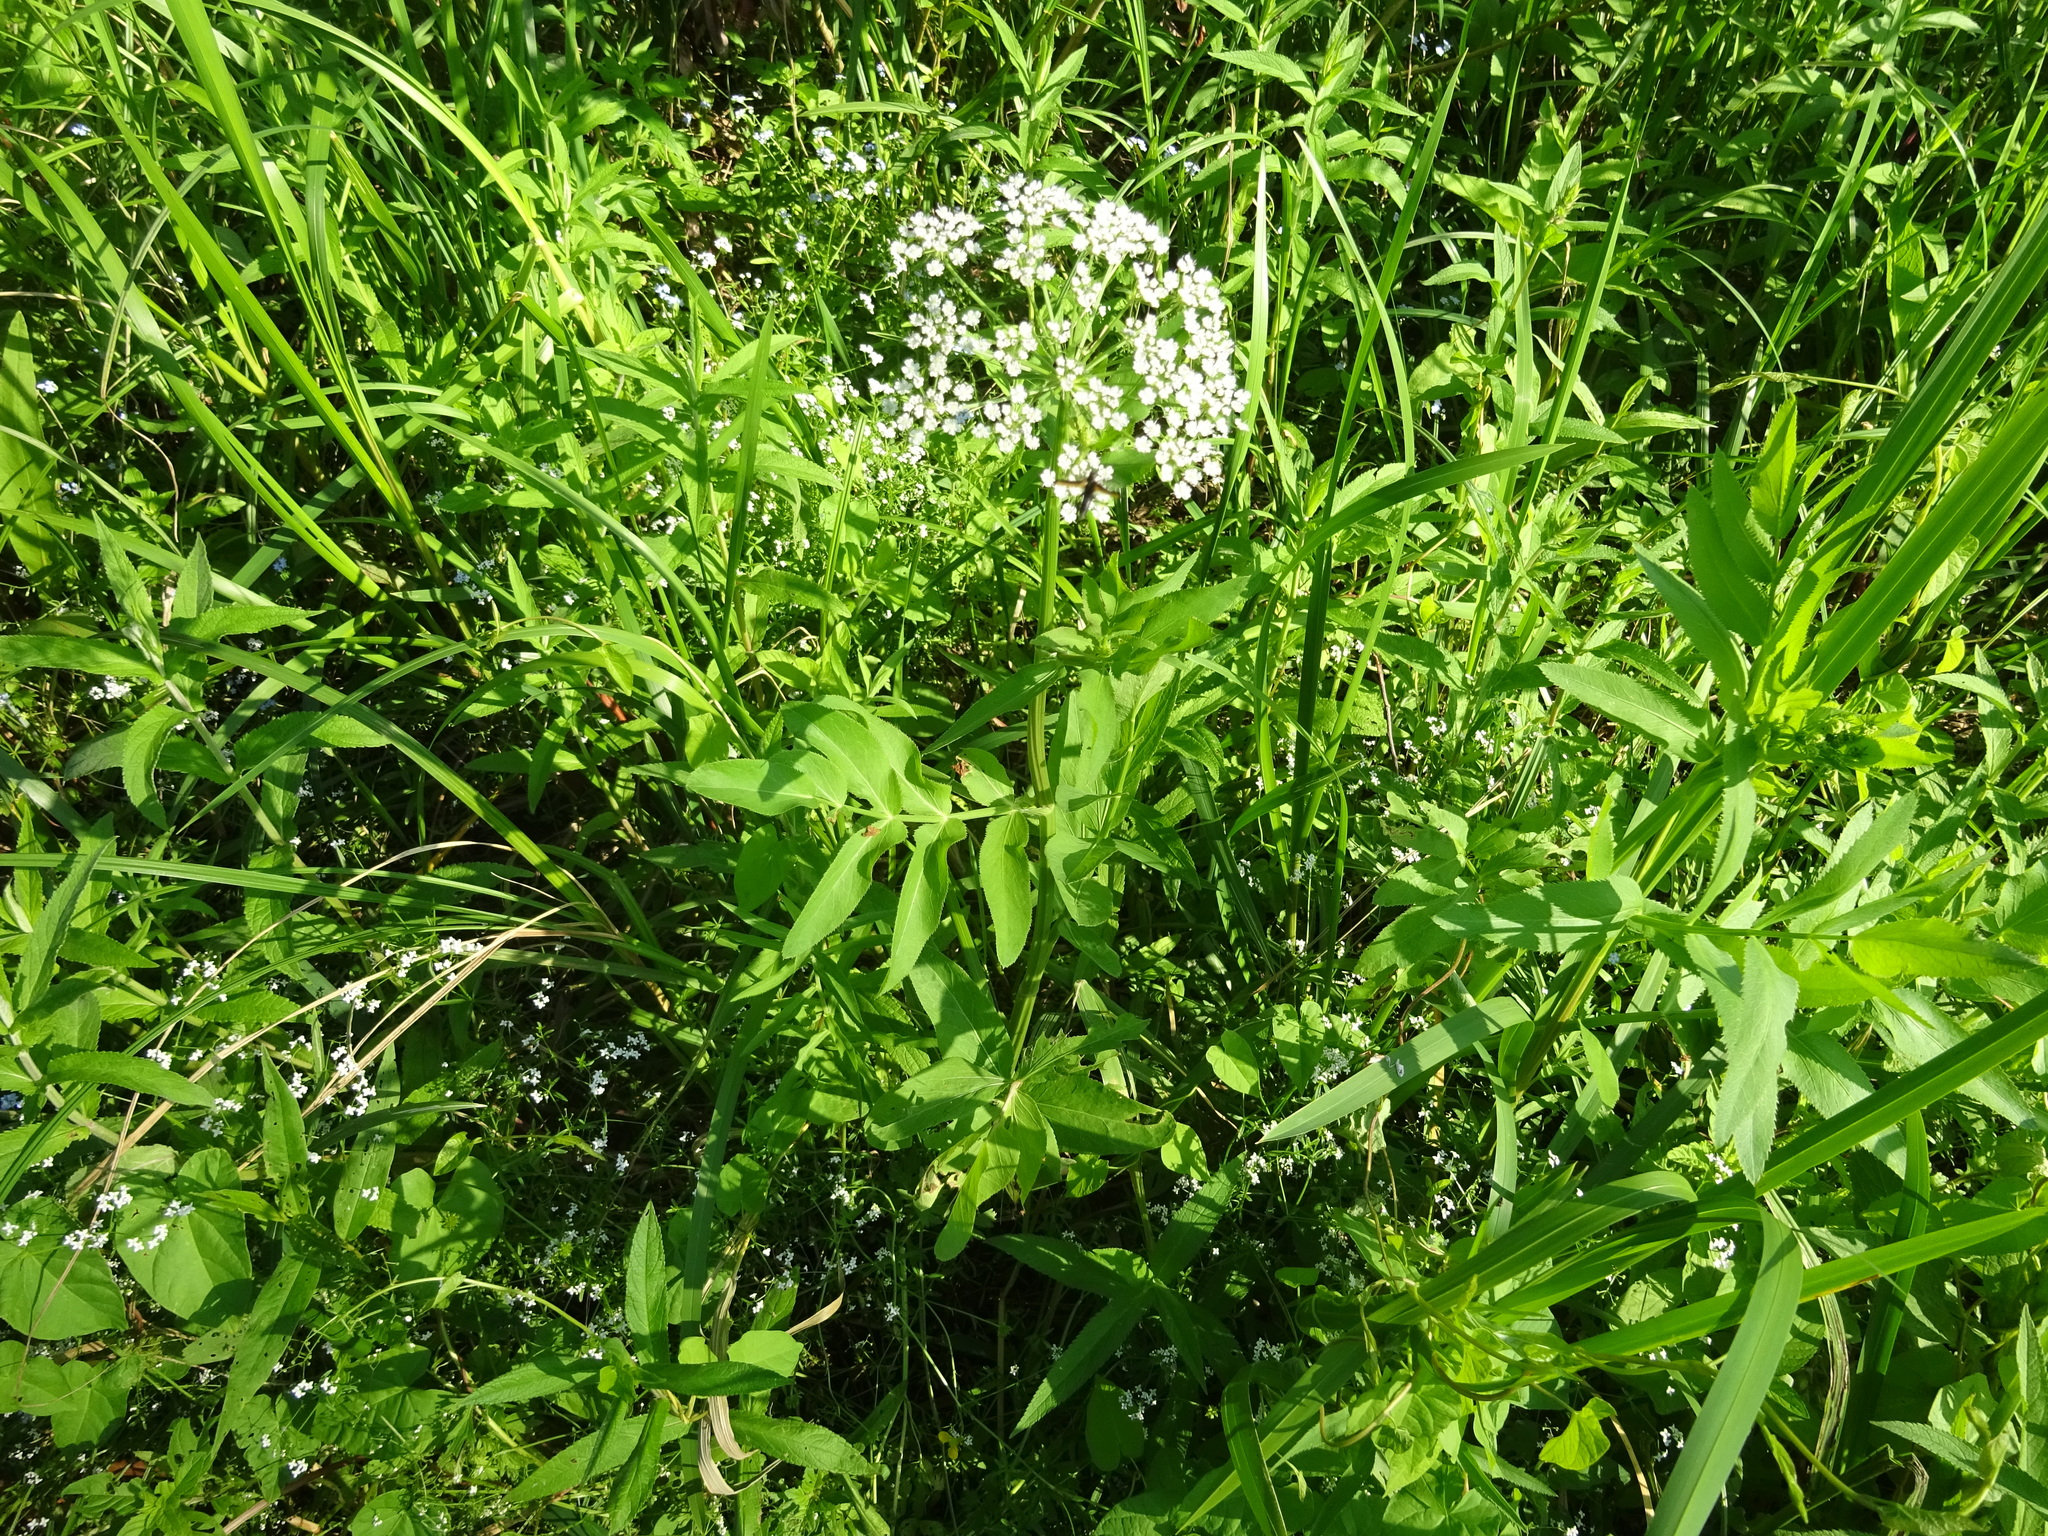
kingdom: Plantae
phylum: Tracheophyta
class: Magnoliopsida
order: Apiales
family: Apiaceae
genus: Sium
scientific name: Sium latifolium
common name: Greater water-parsnip
